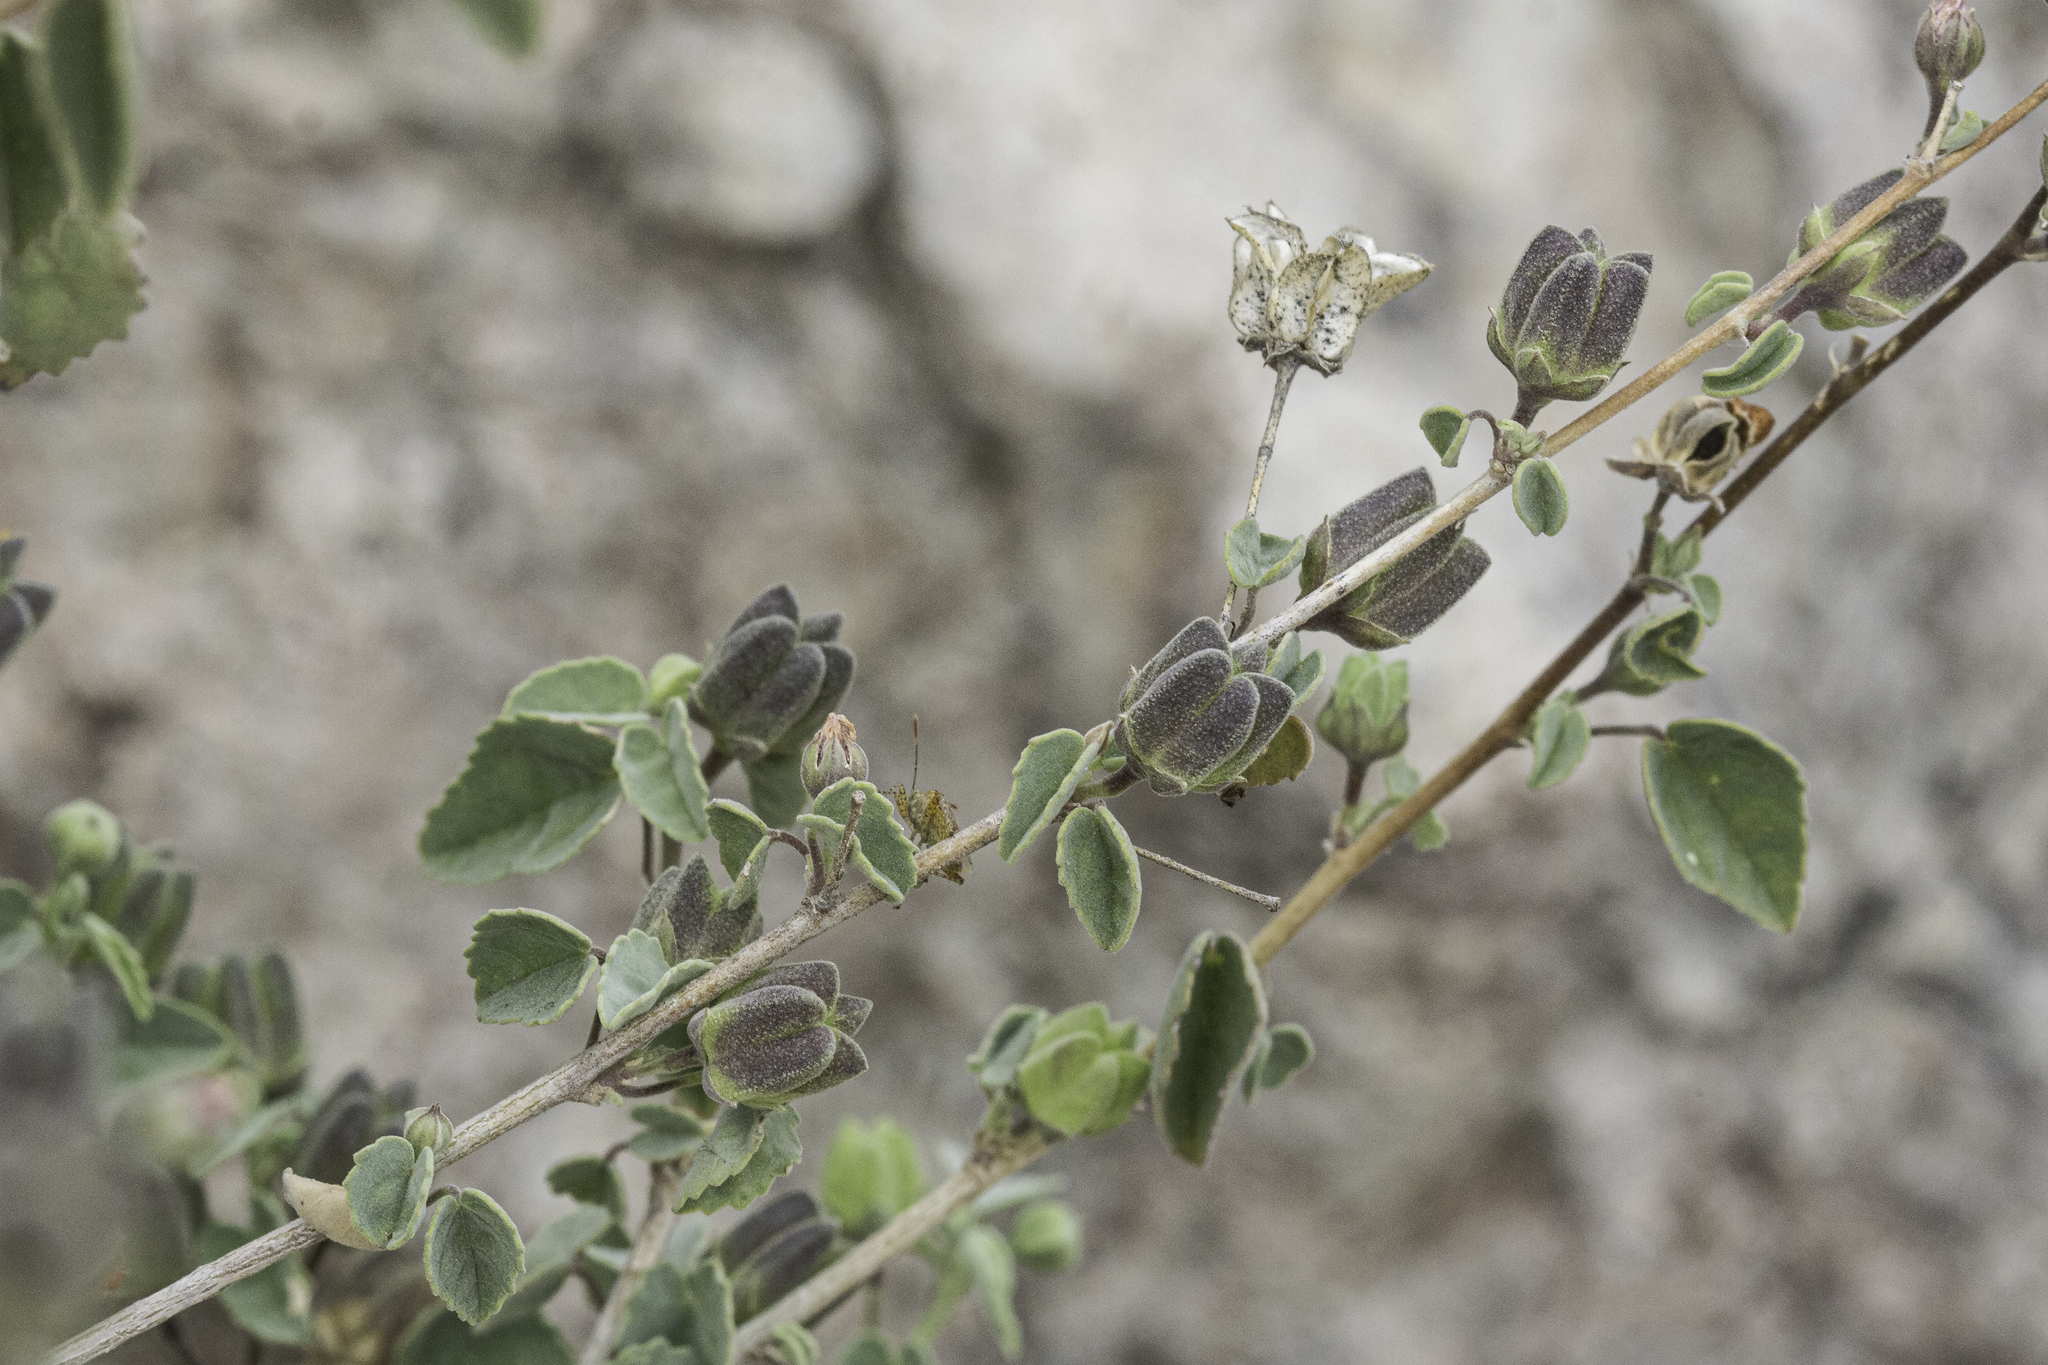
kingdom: Plantae
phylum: Tracheophyta
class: Magnoliopsida
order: Malvales
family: Malvaceae
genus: Abutilon
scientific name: Abutilon incanum
